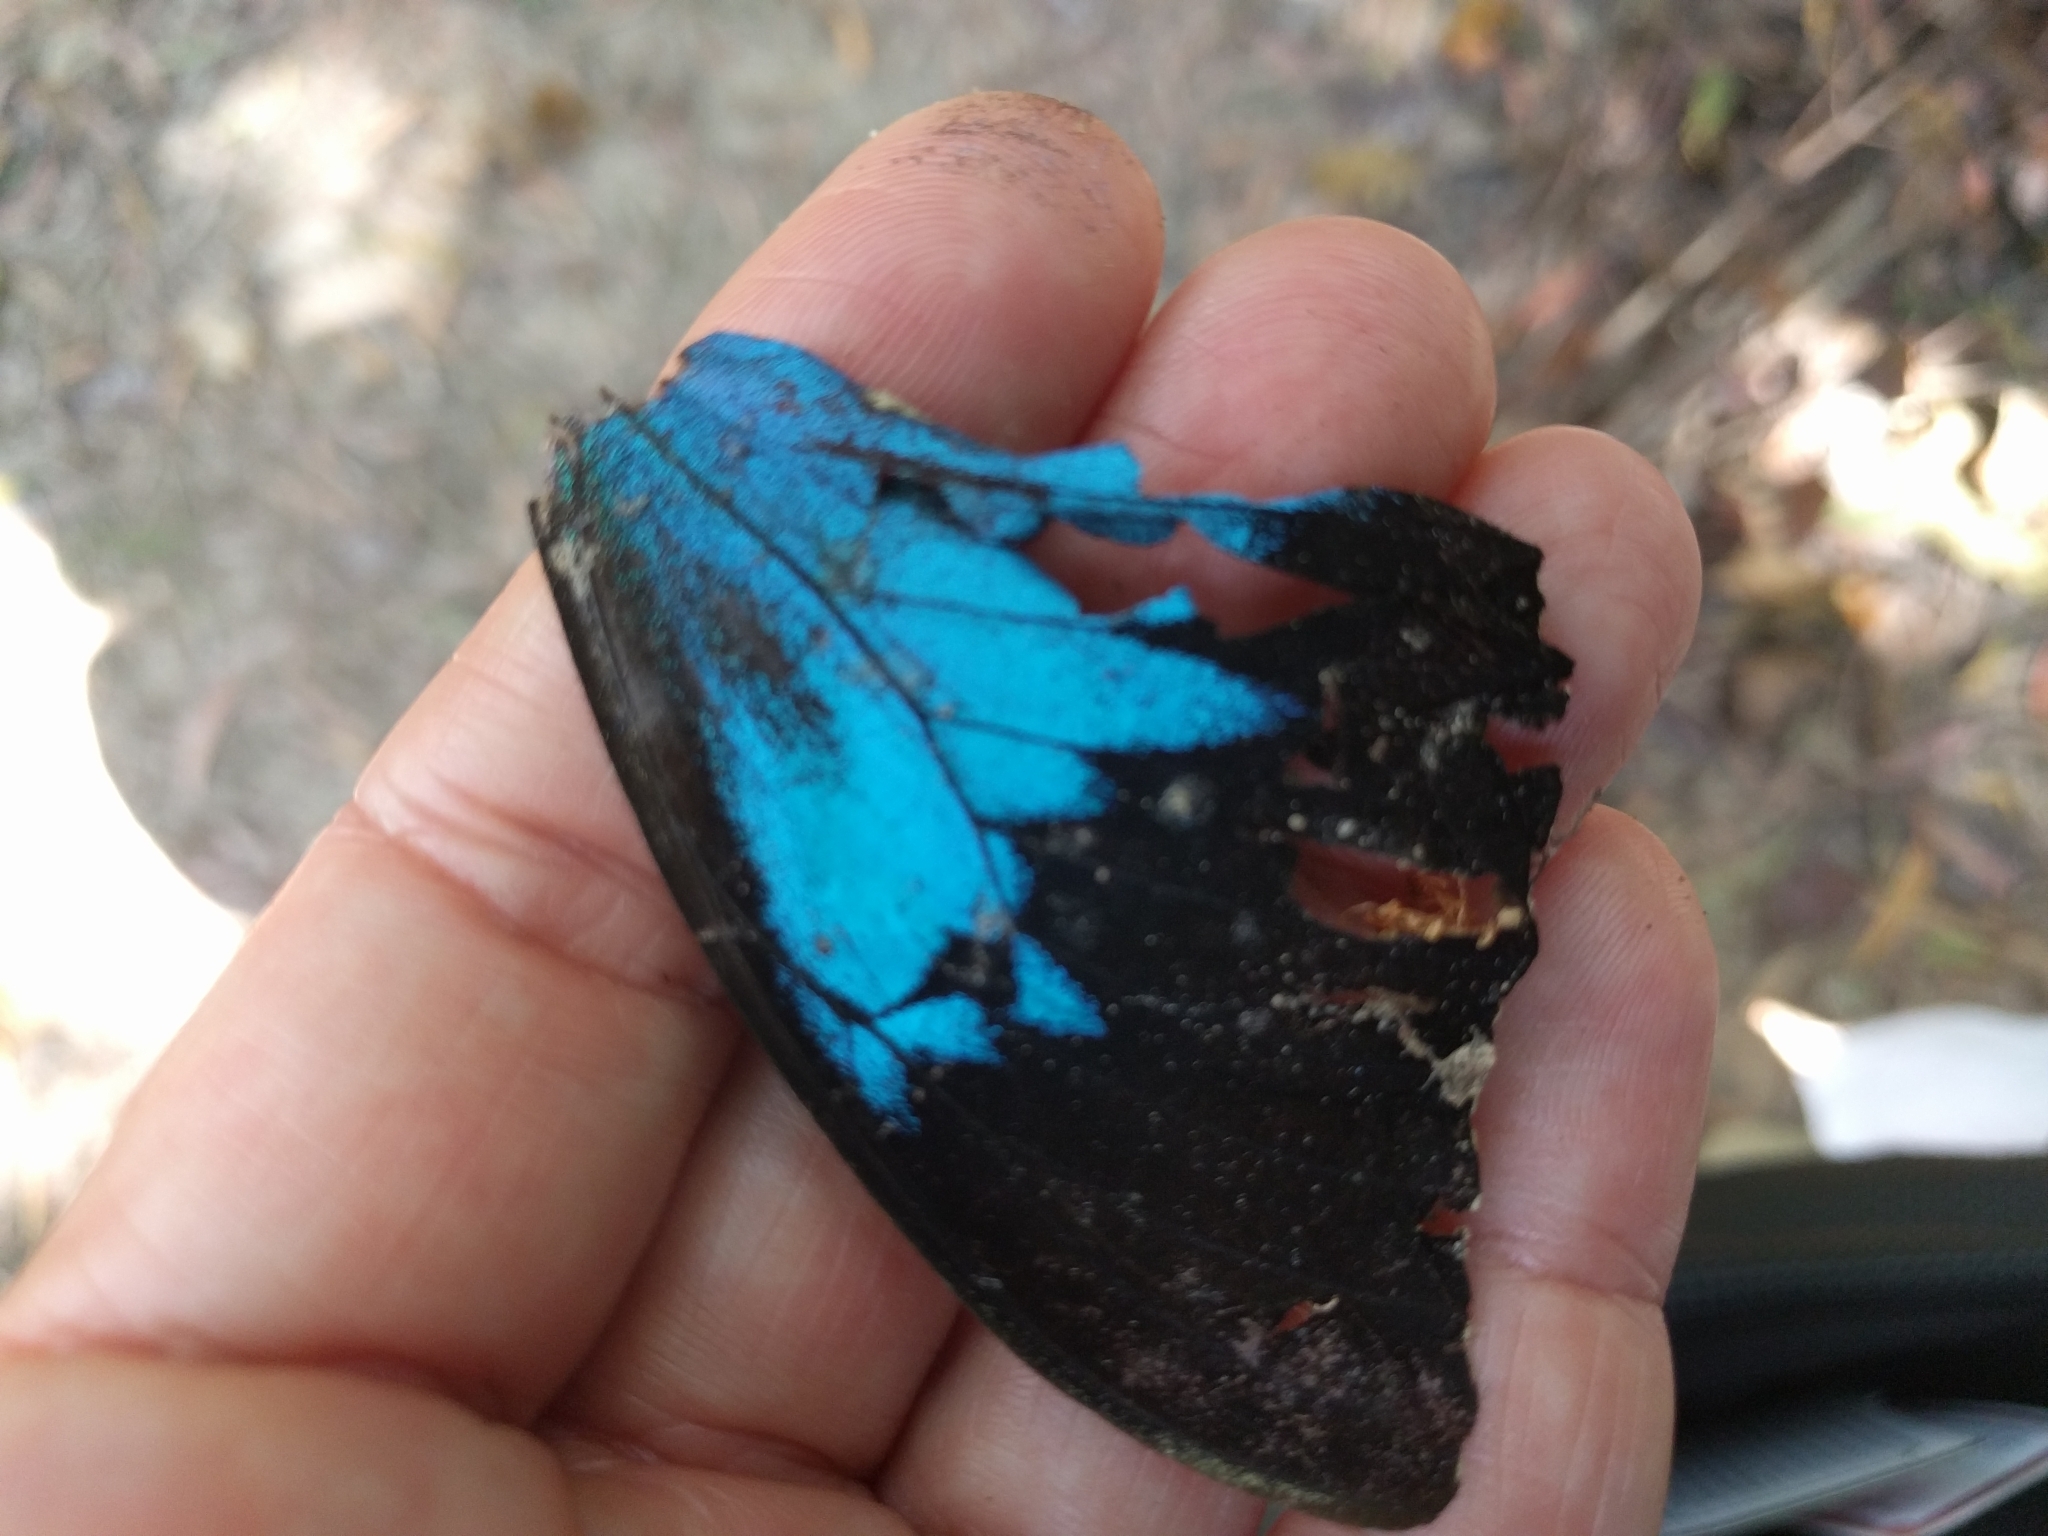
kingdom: Animalia
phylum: Arthropoda
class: Insecta
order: Lepidoptera
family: Papilionidae
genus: Papilio
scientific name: Papilio ulysses
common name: Blue emperor
